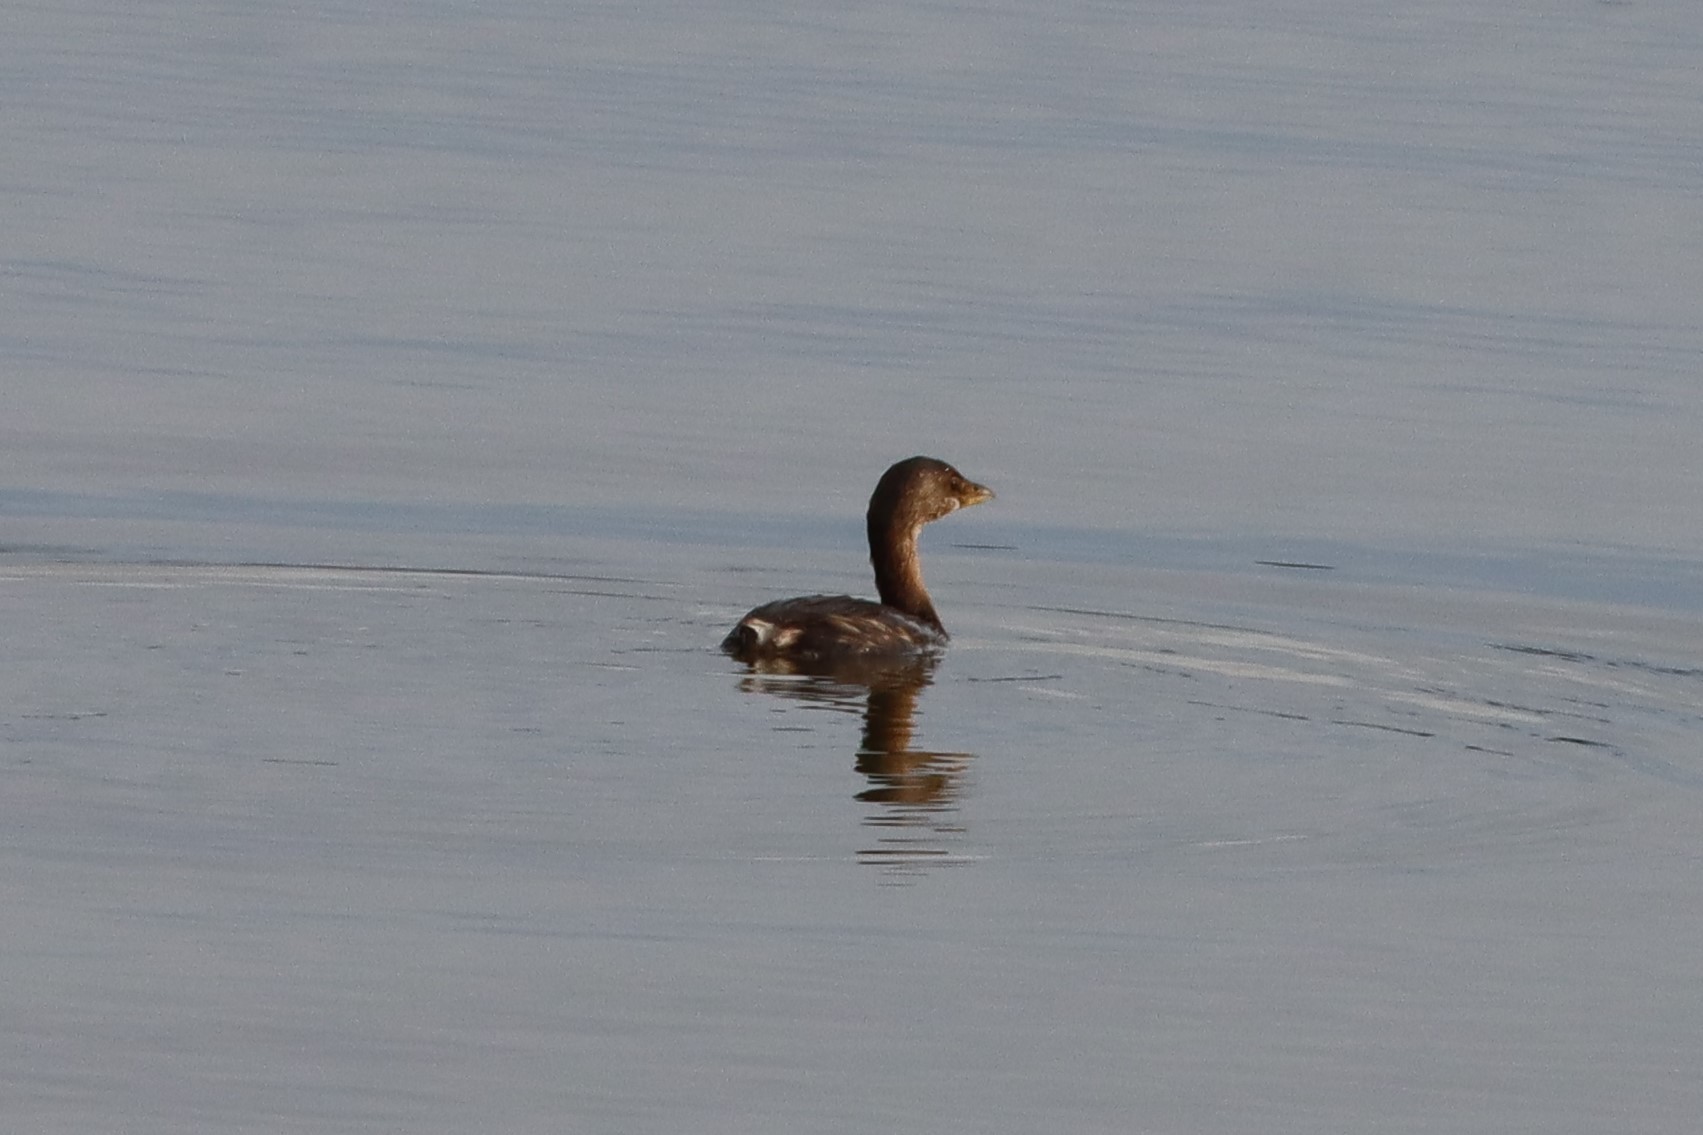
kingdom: Animalia
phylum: Chordata
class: Aves
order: Podicipediformes
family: Podicipedidae
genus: Podilymbus
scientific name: Podilymbus podiceps
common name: Pied-billed grebe
